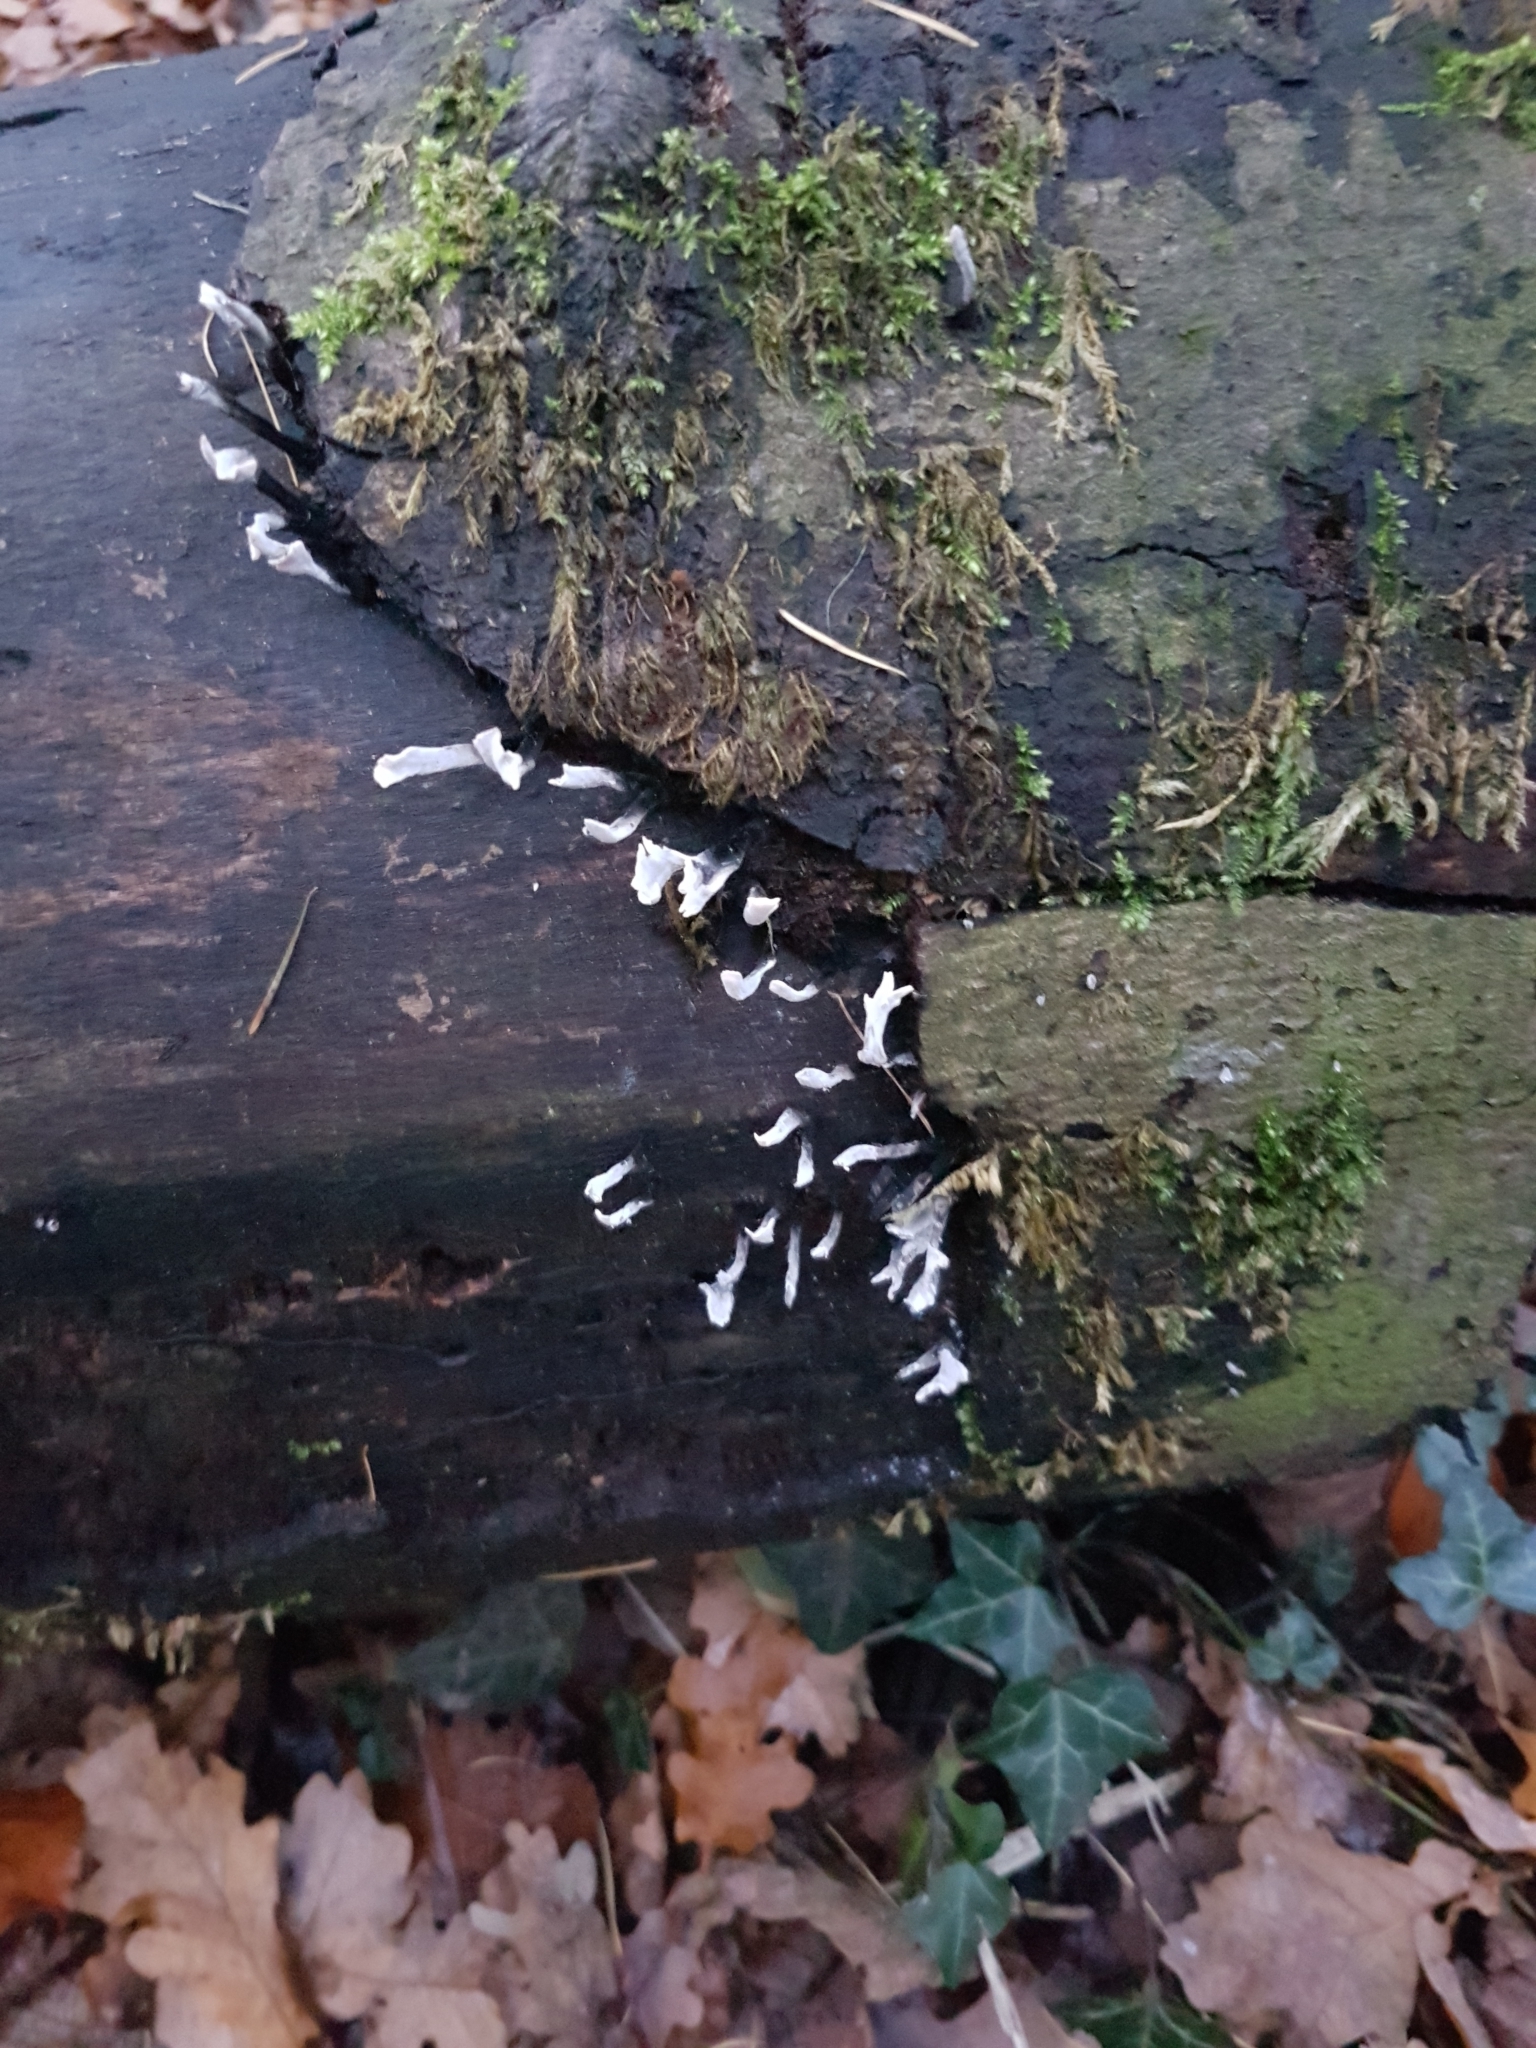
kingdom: Fungi
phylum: Ascomycota
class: Sordariomycetes
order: Xylariales
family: Xylariaceae
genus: Xylaria
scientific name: Xylaria hypoxylon
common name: Candle-snuff fungus
